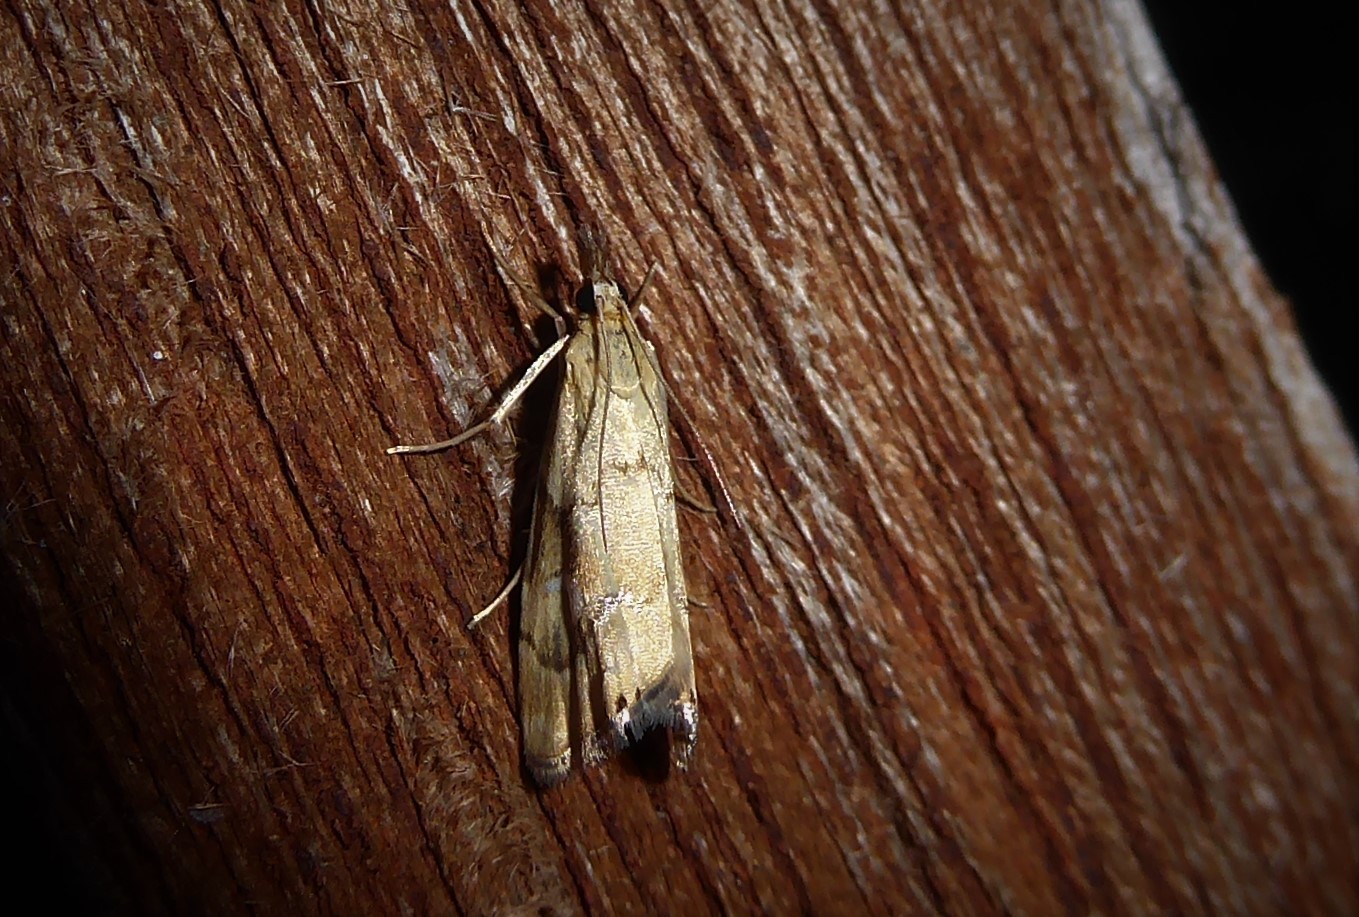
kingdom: Animalia
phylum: Arthropoda
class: Insecta
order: Lepidoptera
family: Crambidae
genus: Glaucocharis
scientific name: Glaucocharis lepidella
